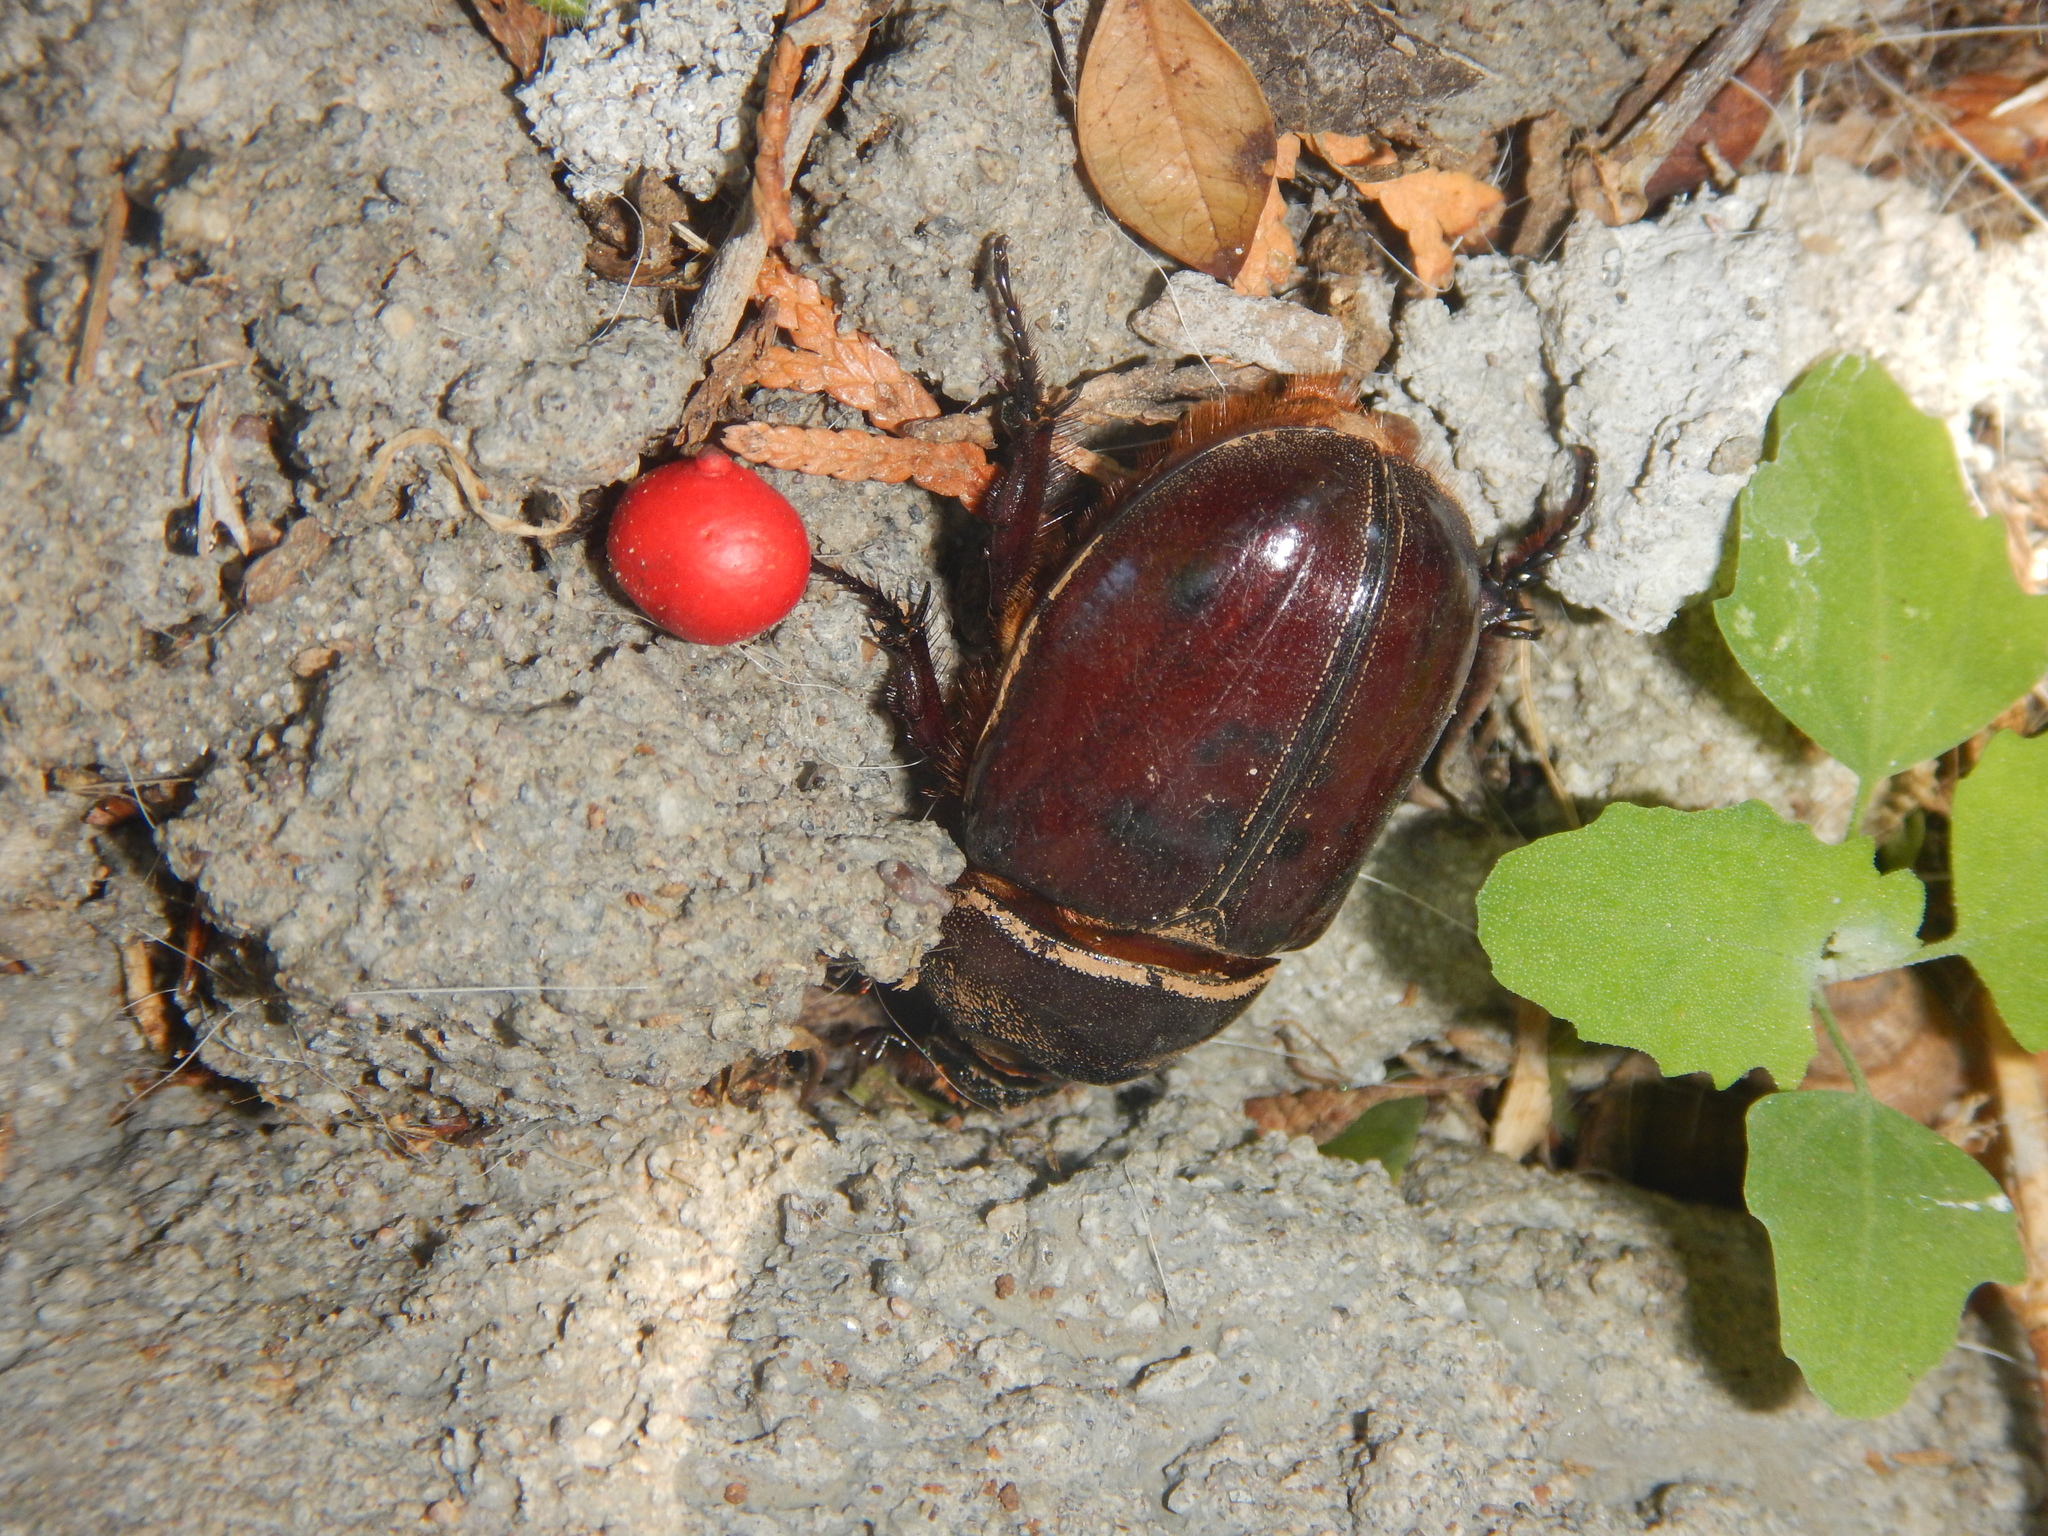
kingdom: Animalia
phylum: Arthropoda
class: Insecta
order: Coleoptera
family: Scarabaeidae
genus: Oryctes
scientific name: Oryctes nasicornis
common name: European rhinoceros beetle
